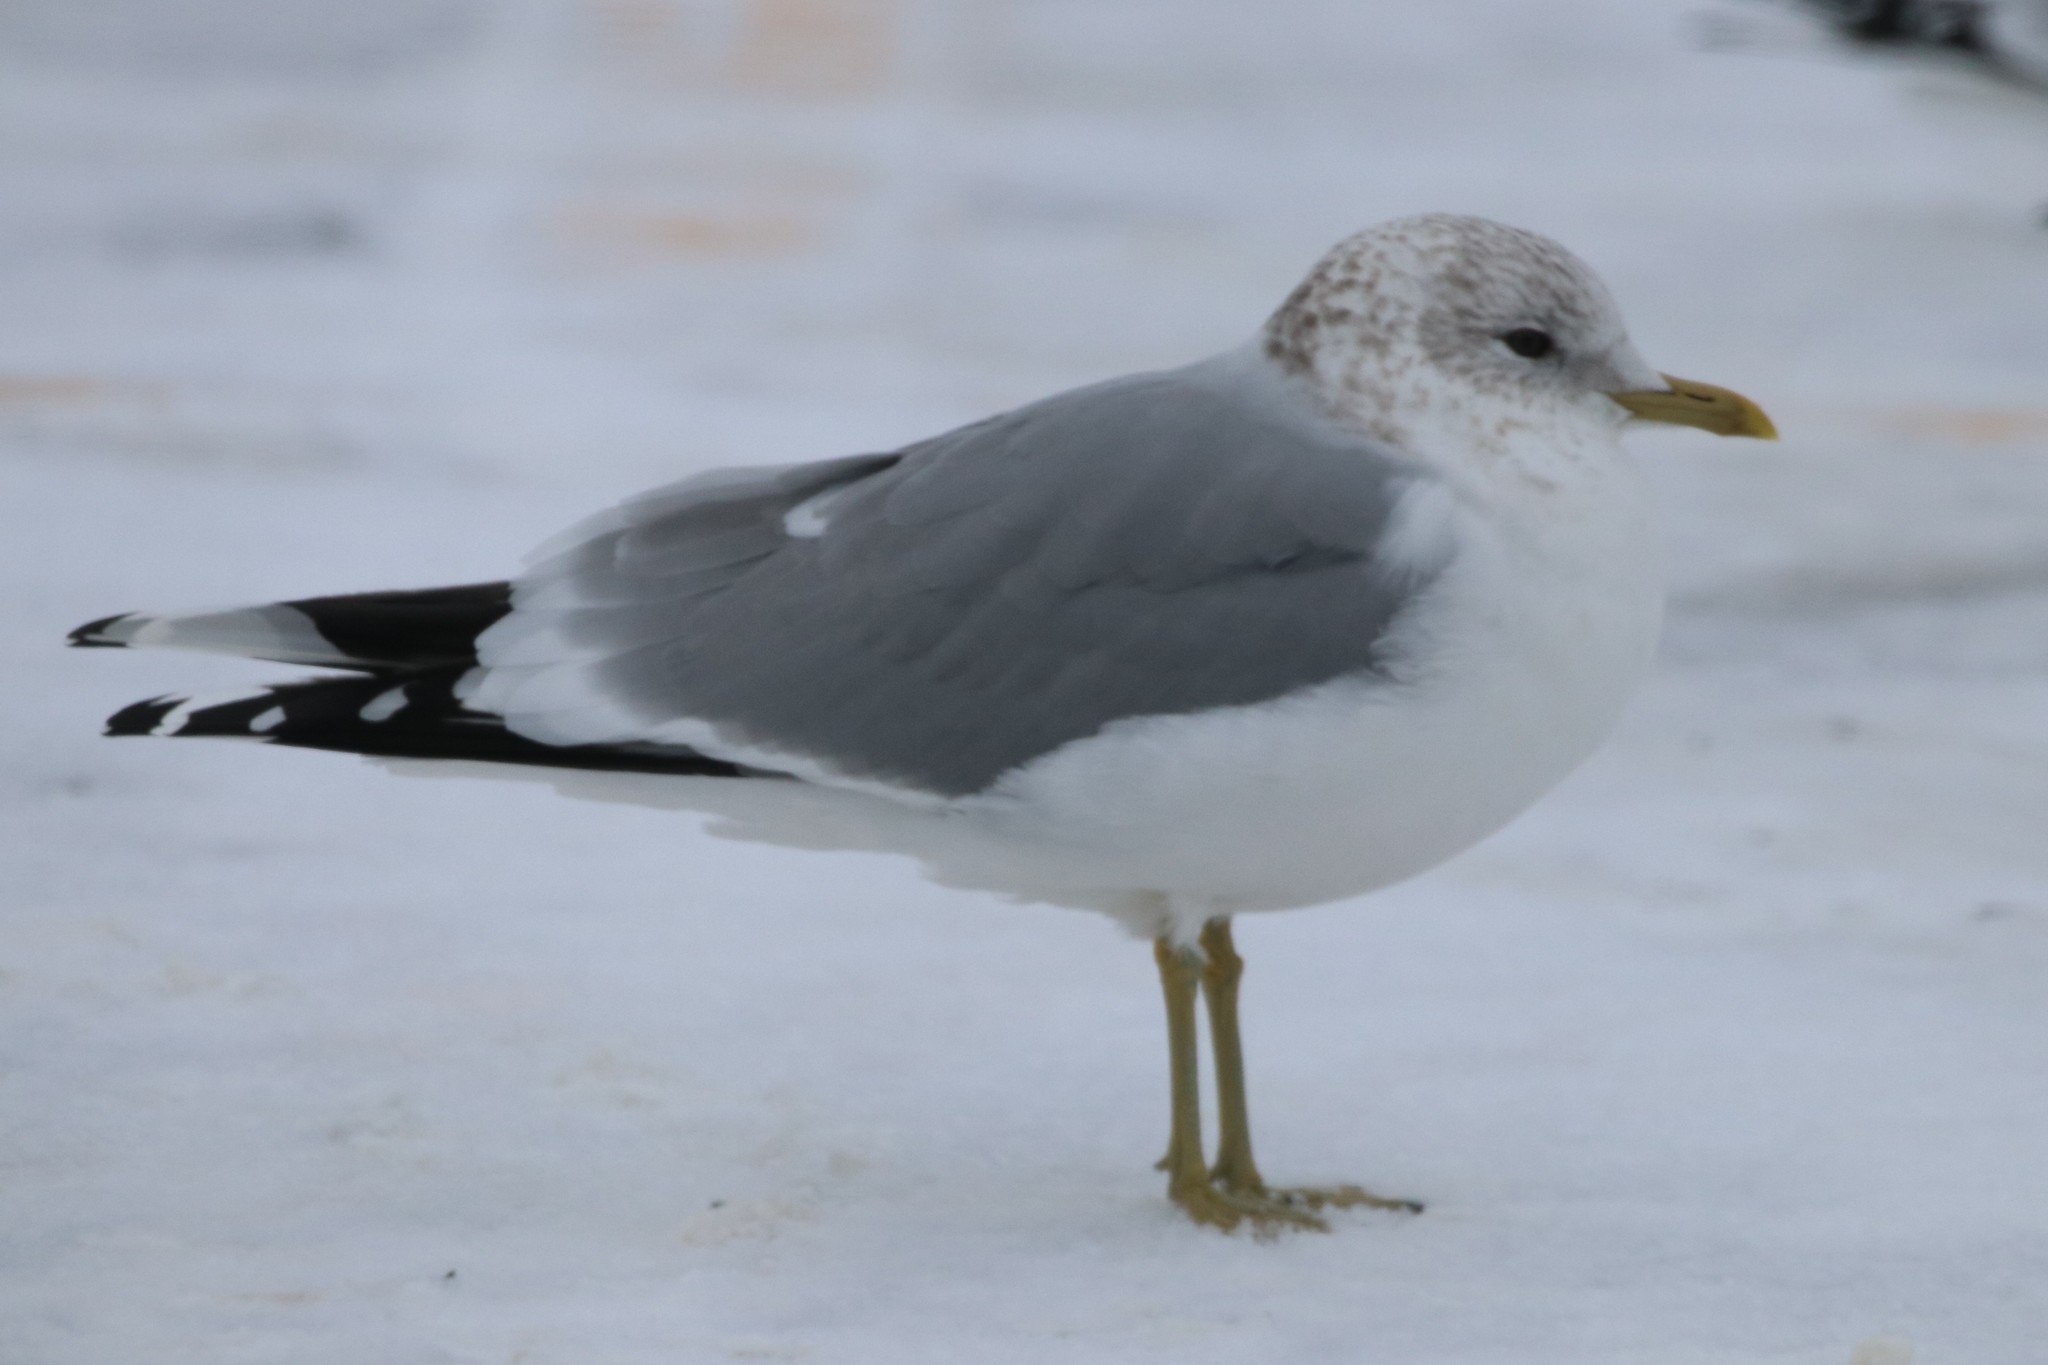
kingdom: Animalia
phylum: Chordata
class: Aves
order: Charadriiformes
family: Laridae
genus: Larus
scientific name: Larus canus
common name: Mew gull
